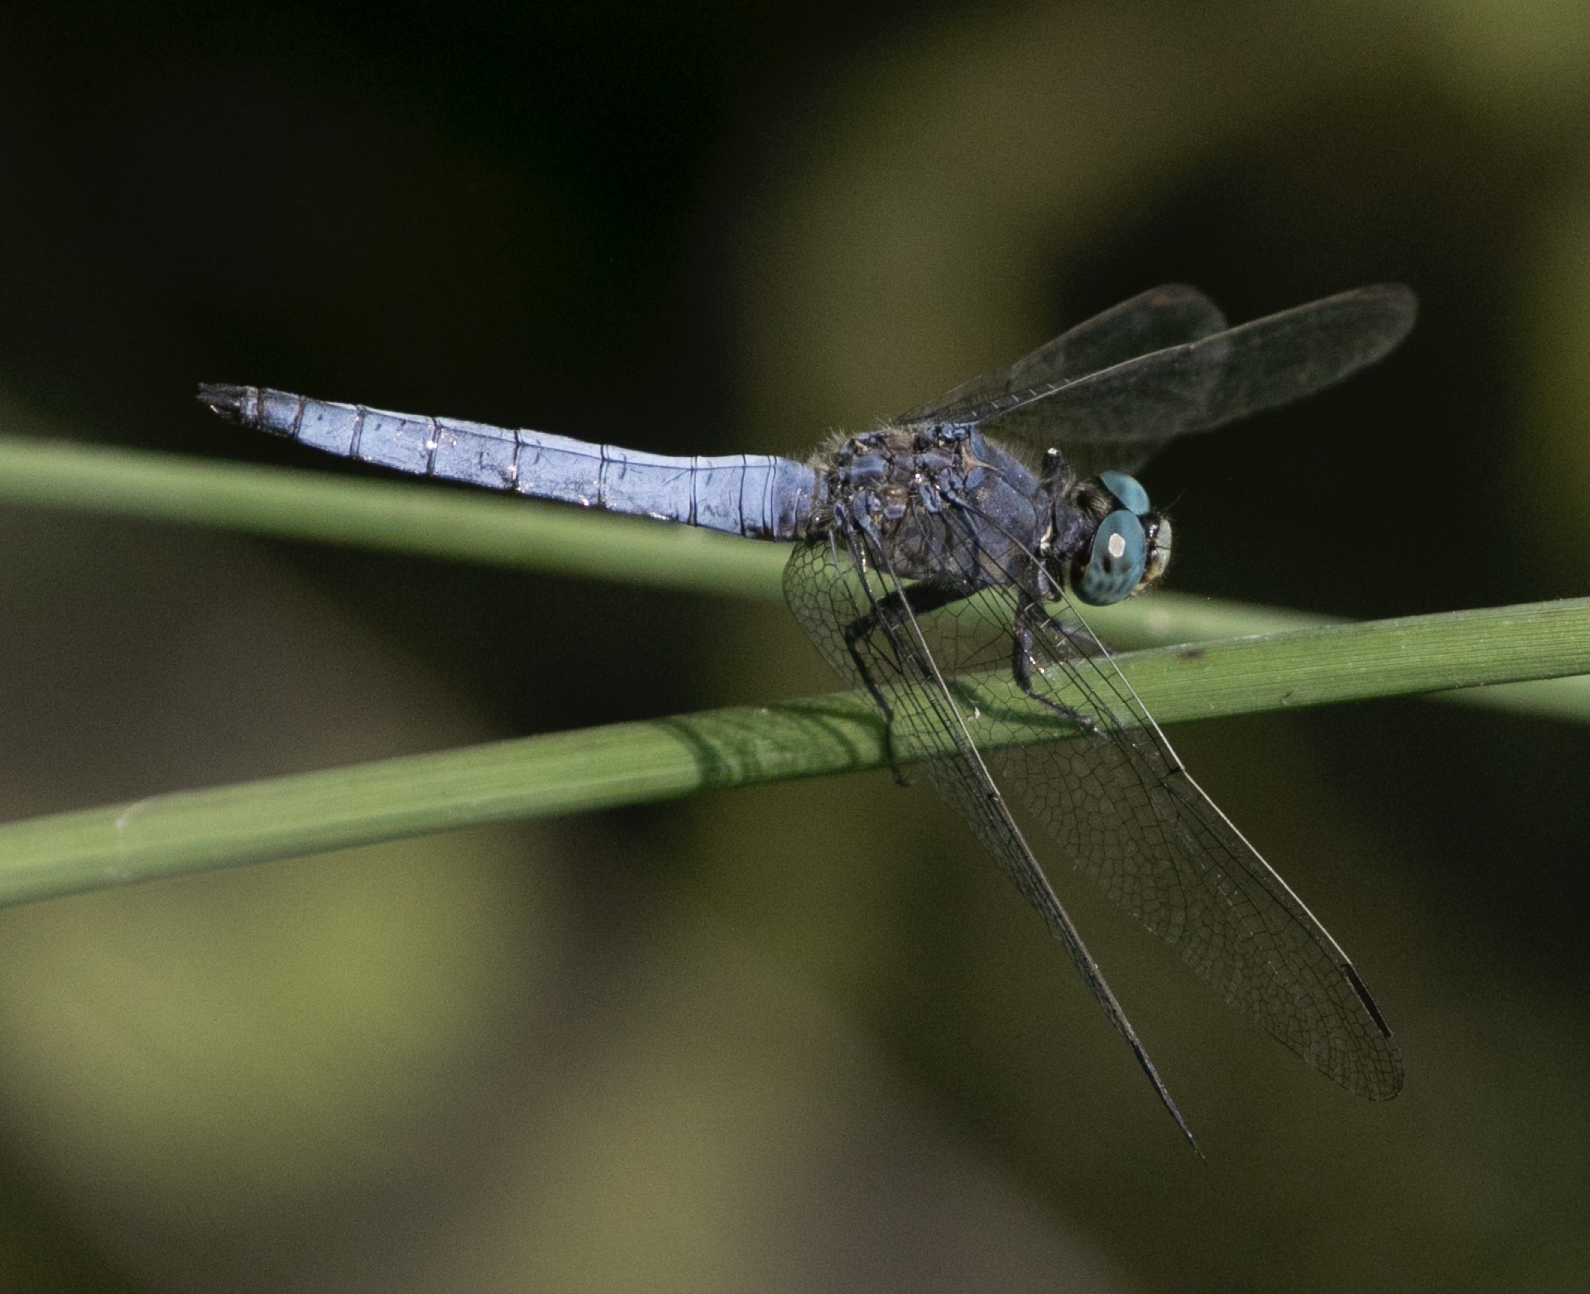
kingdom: Animalia
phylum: Arthropoda
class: Insecta
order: Odonata
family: Libellulidae
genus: Orthetrum
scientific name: Orthetrum coerulescens
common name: Keeled skimmer
